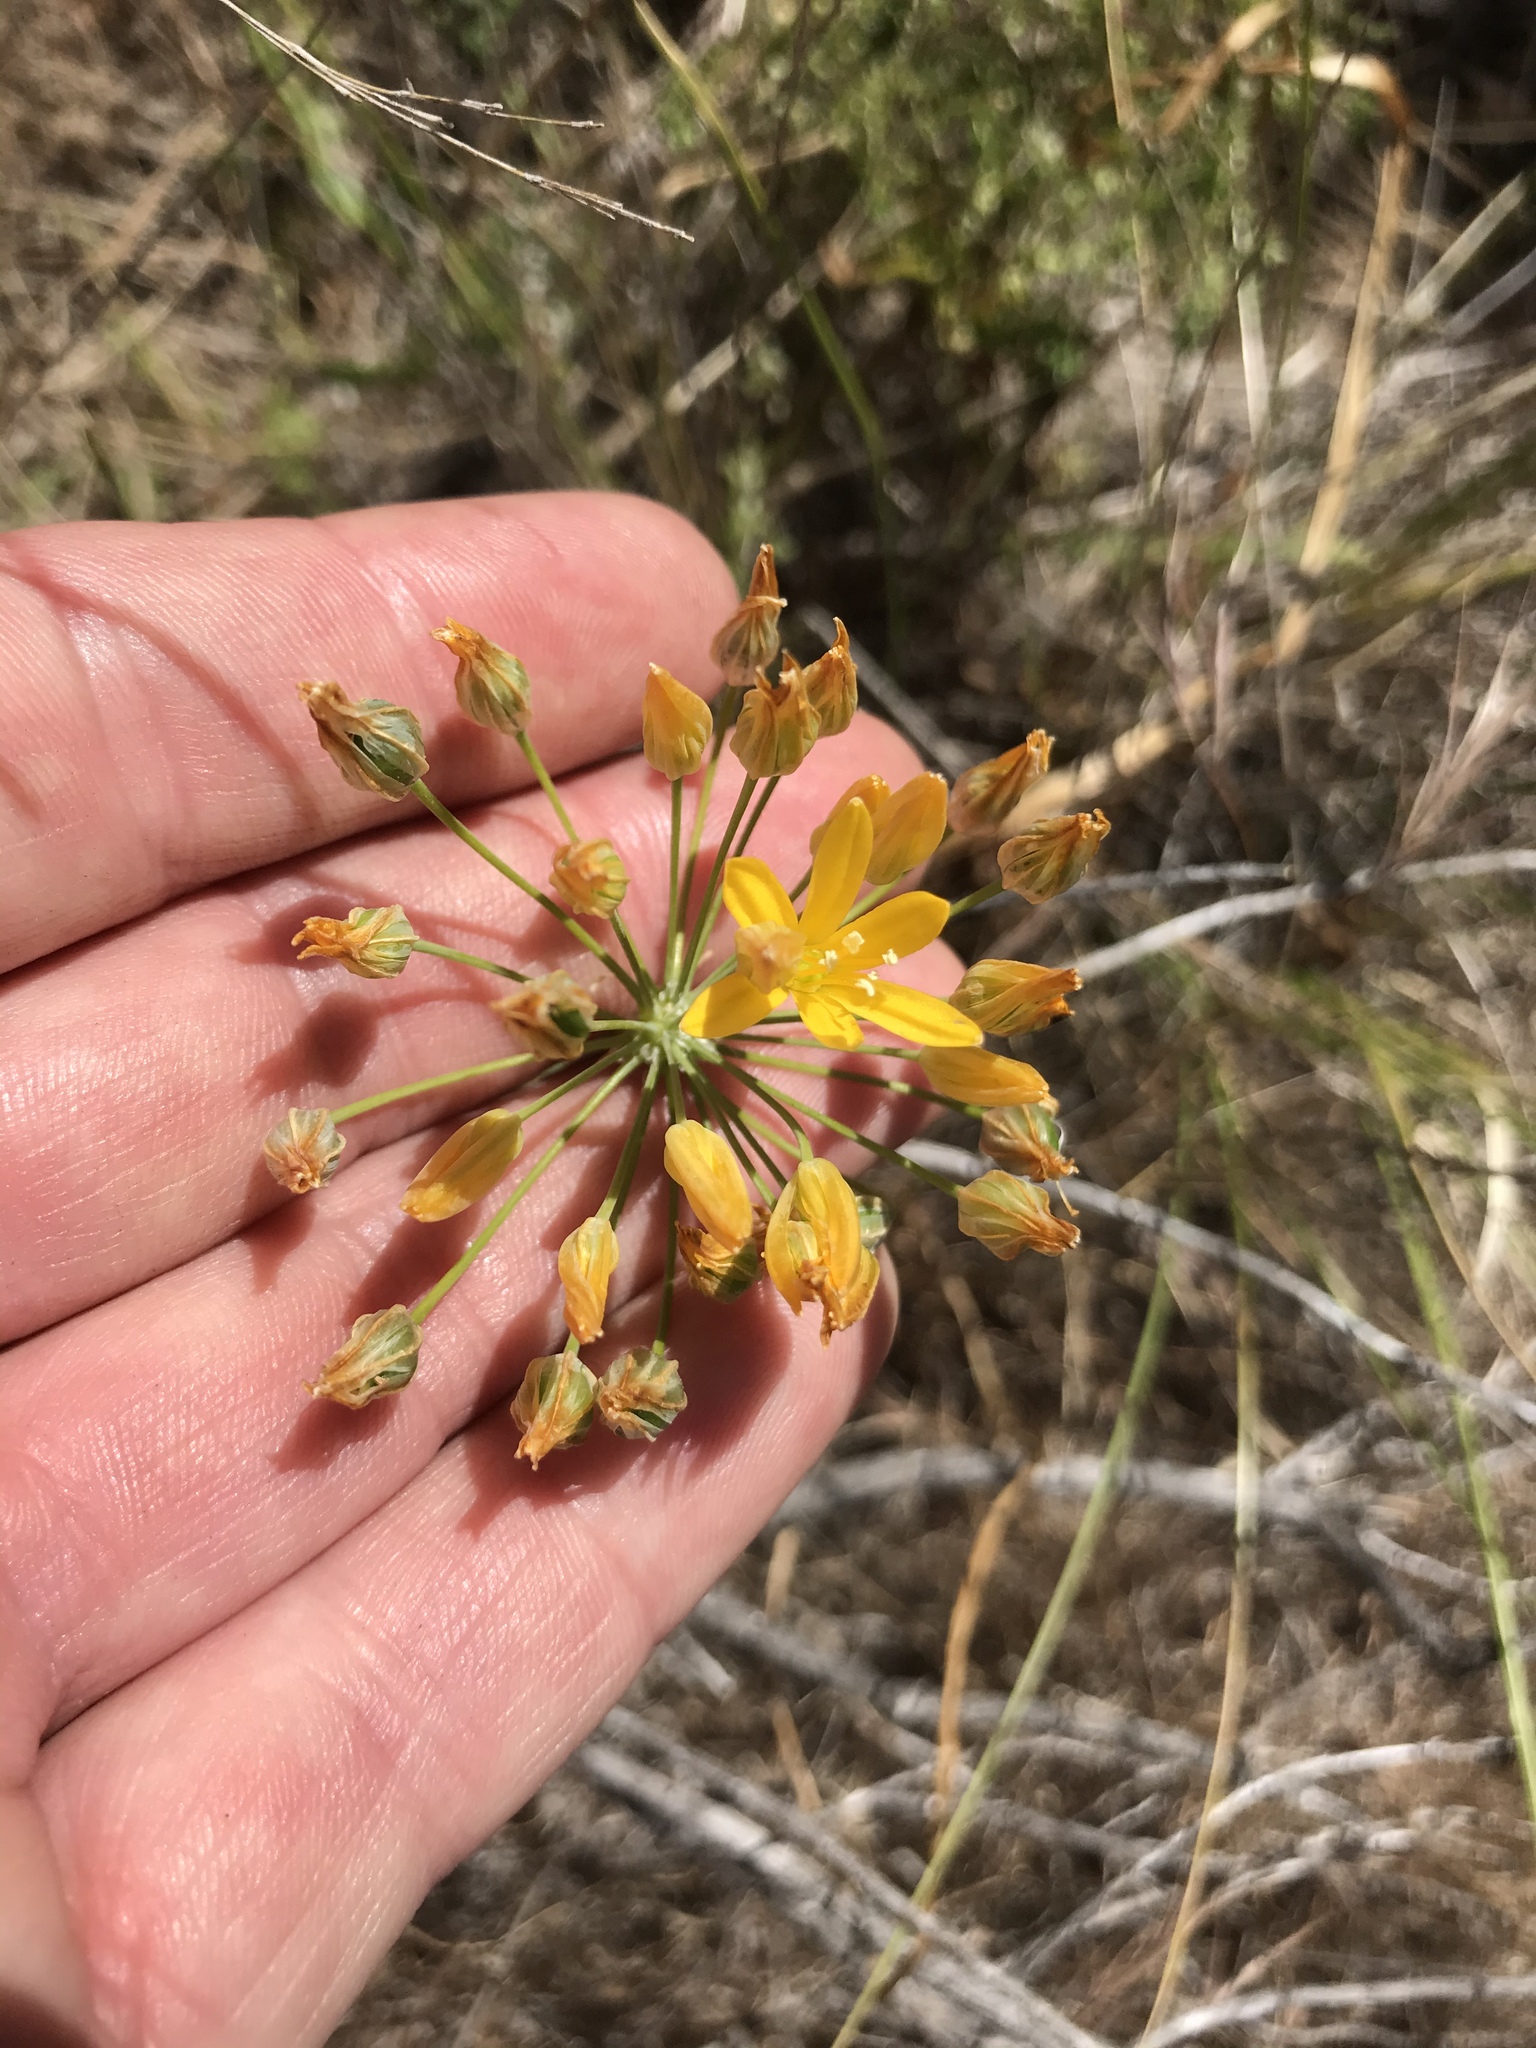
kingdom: Plantae
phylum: Tracheophyta
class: Liliopsida
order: Asparagales
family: Asparagaceae
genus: Bloomeria
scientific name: Bloomeria crocea
